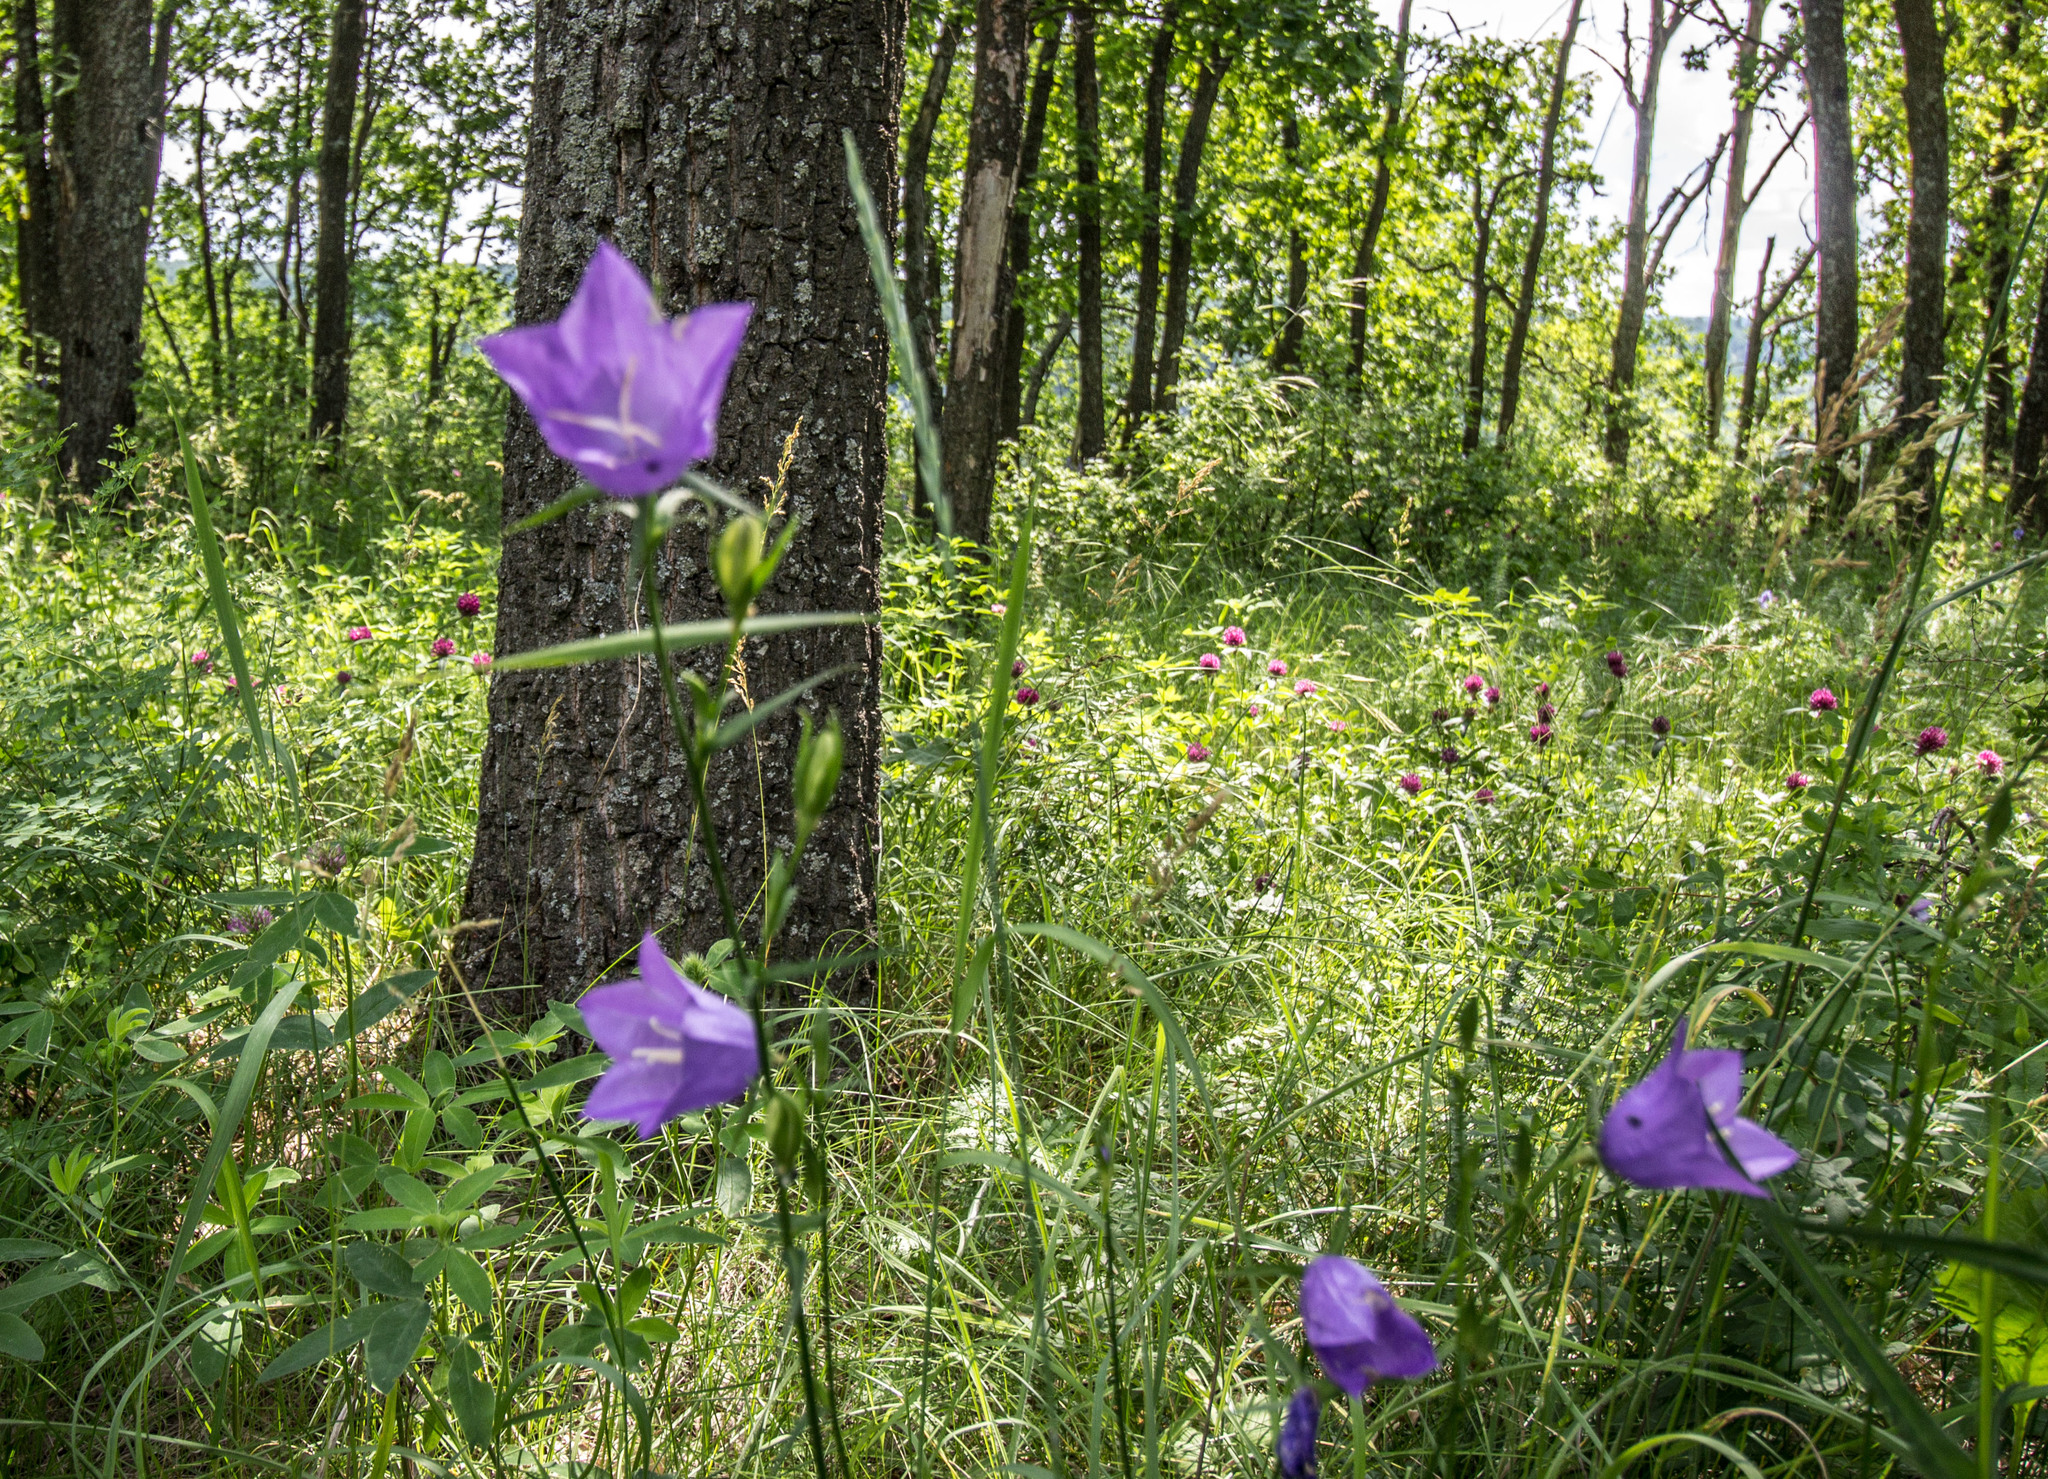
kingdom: Plantae
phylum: Tracheophyta
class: Magnoliopsida
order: Asterales
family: Campanulaceae
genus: Campanula
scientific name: Campanula persicifolia
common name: Peach-leaved bellflower
